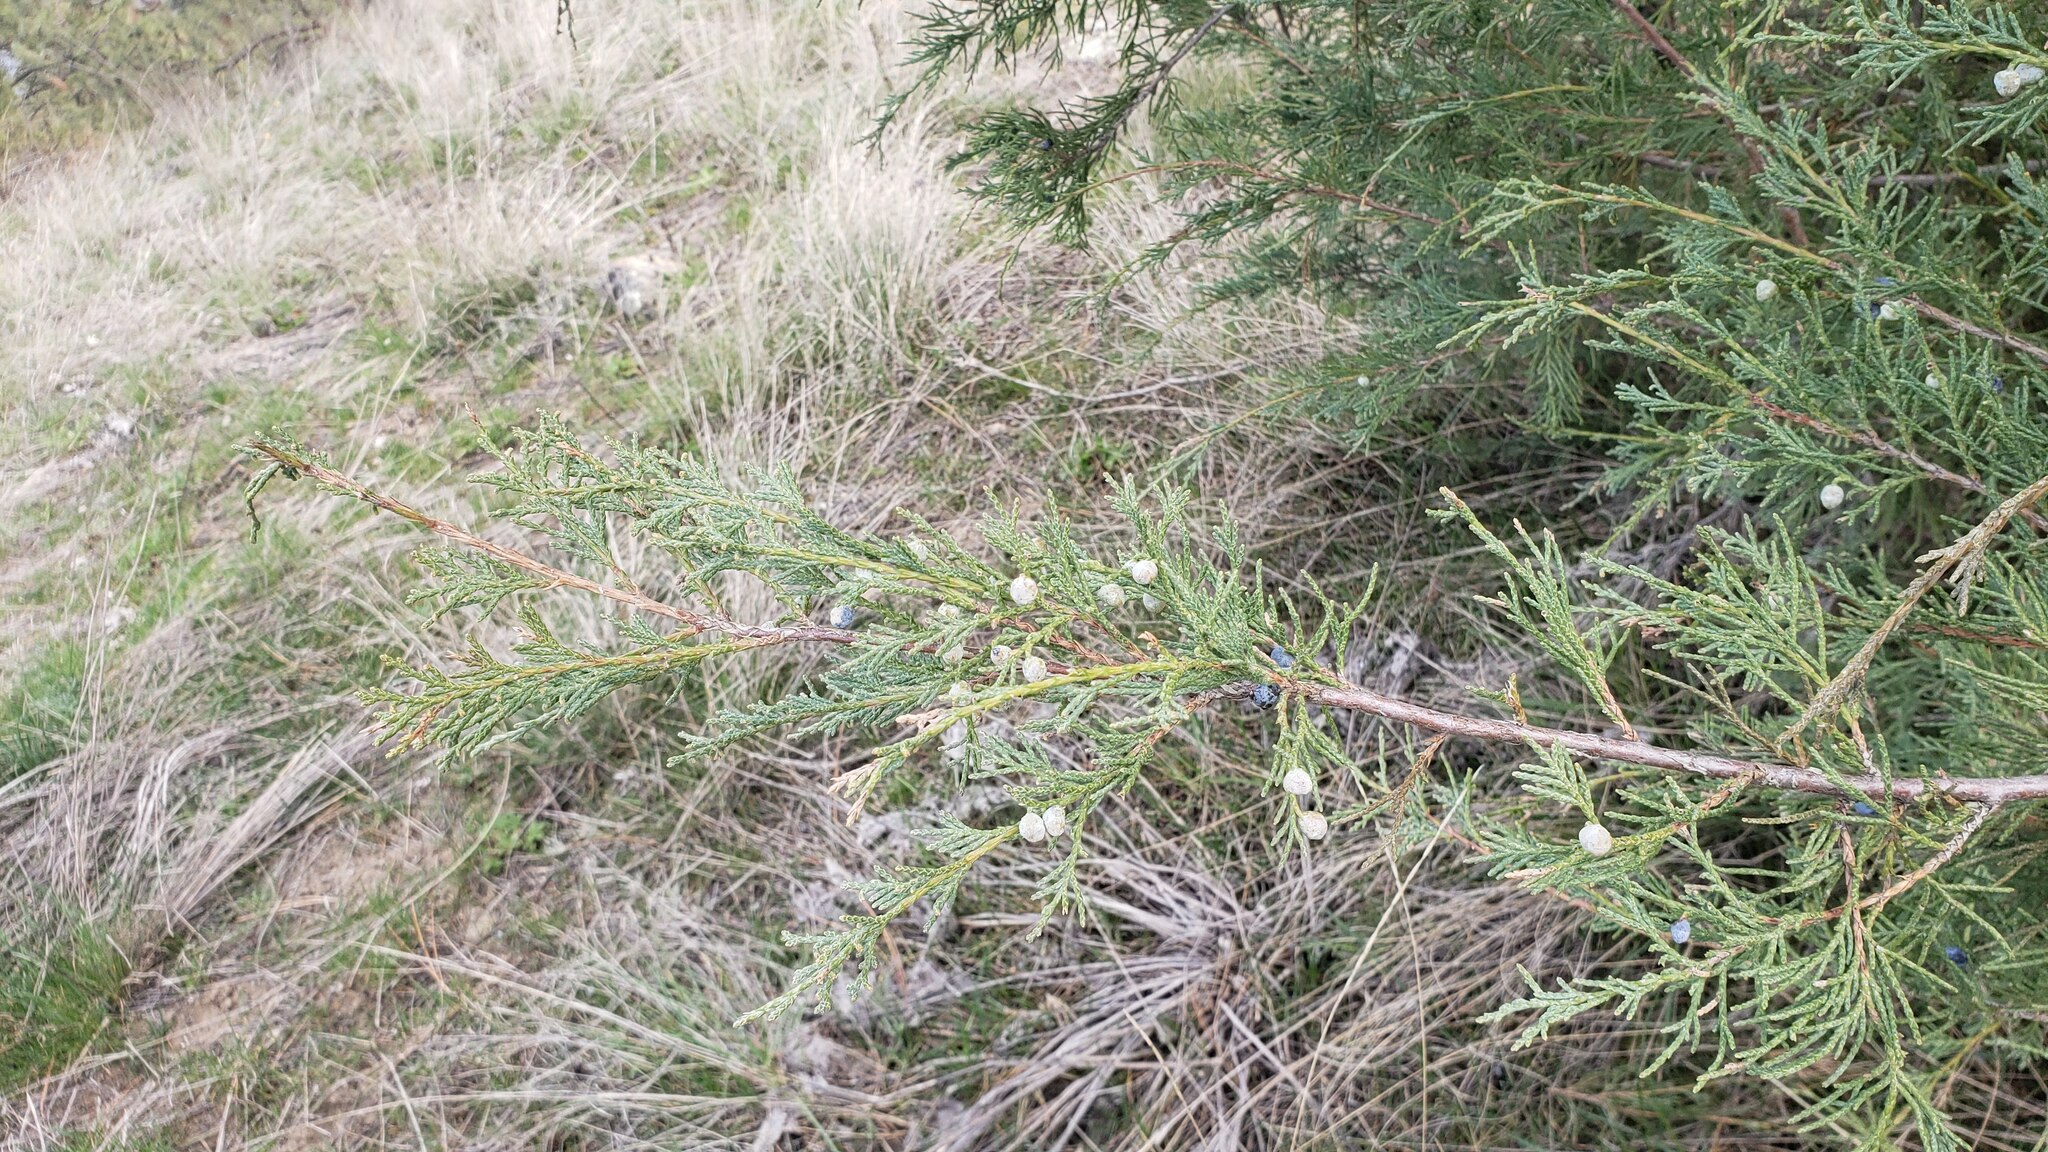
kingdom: Plantae
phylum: Tracheophyta
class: Pinopsida
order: Pinales
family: Cupressaceae
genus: Juniperus
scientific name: Juniperus scopulorum
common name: Rocky mountain juniper
